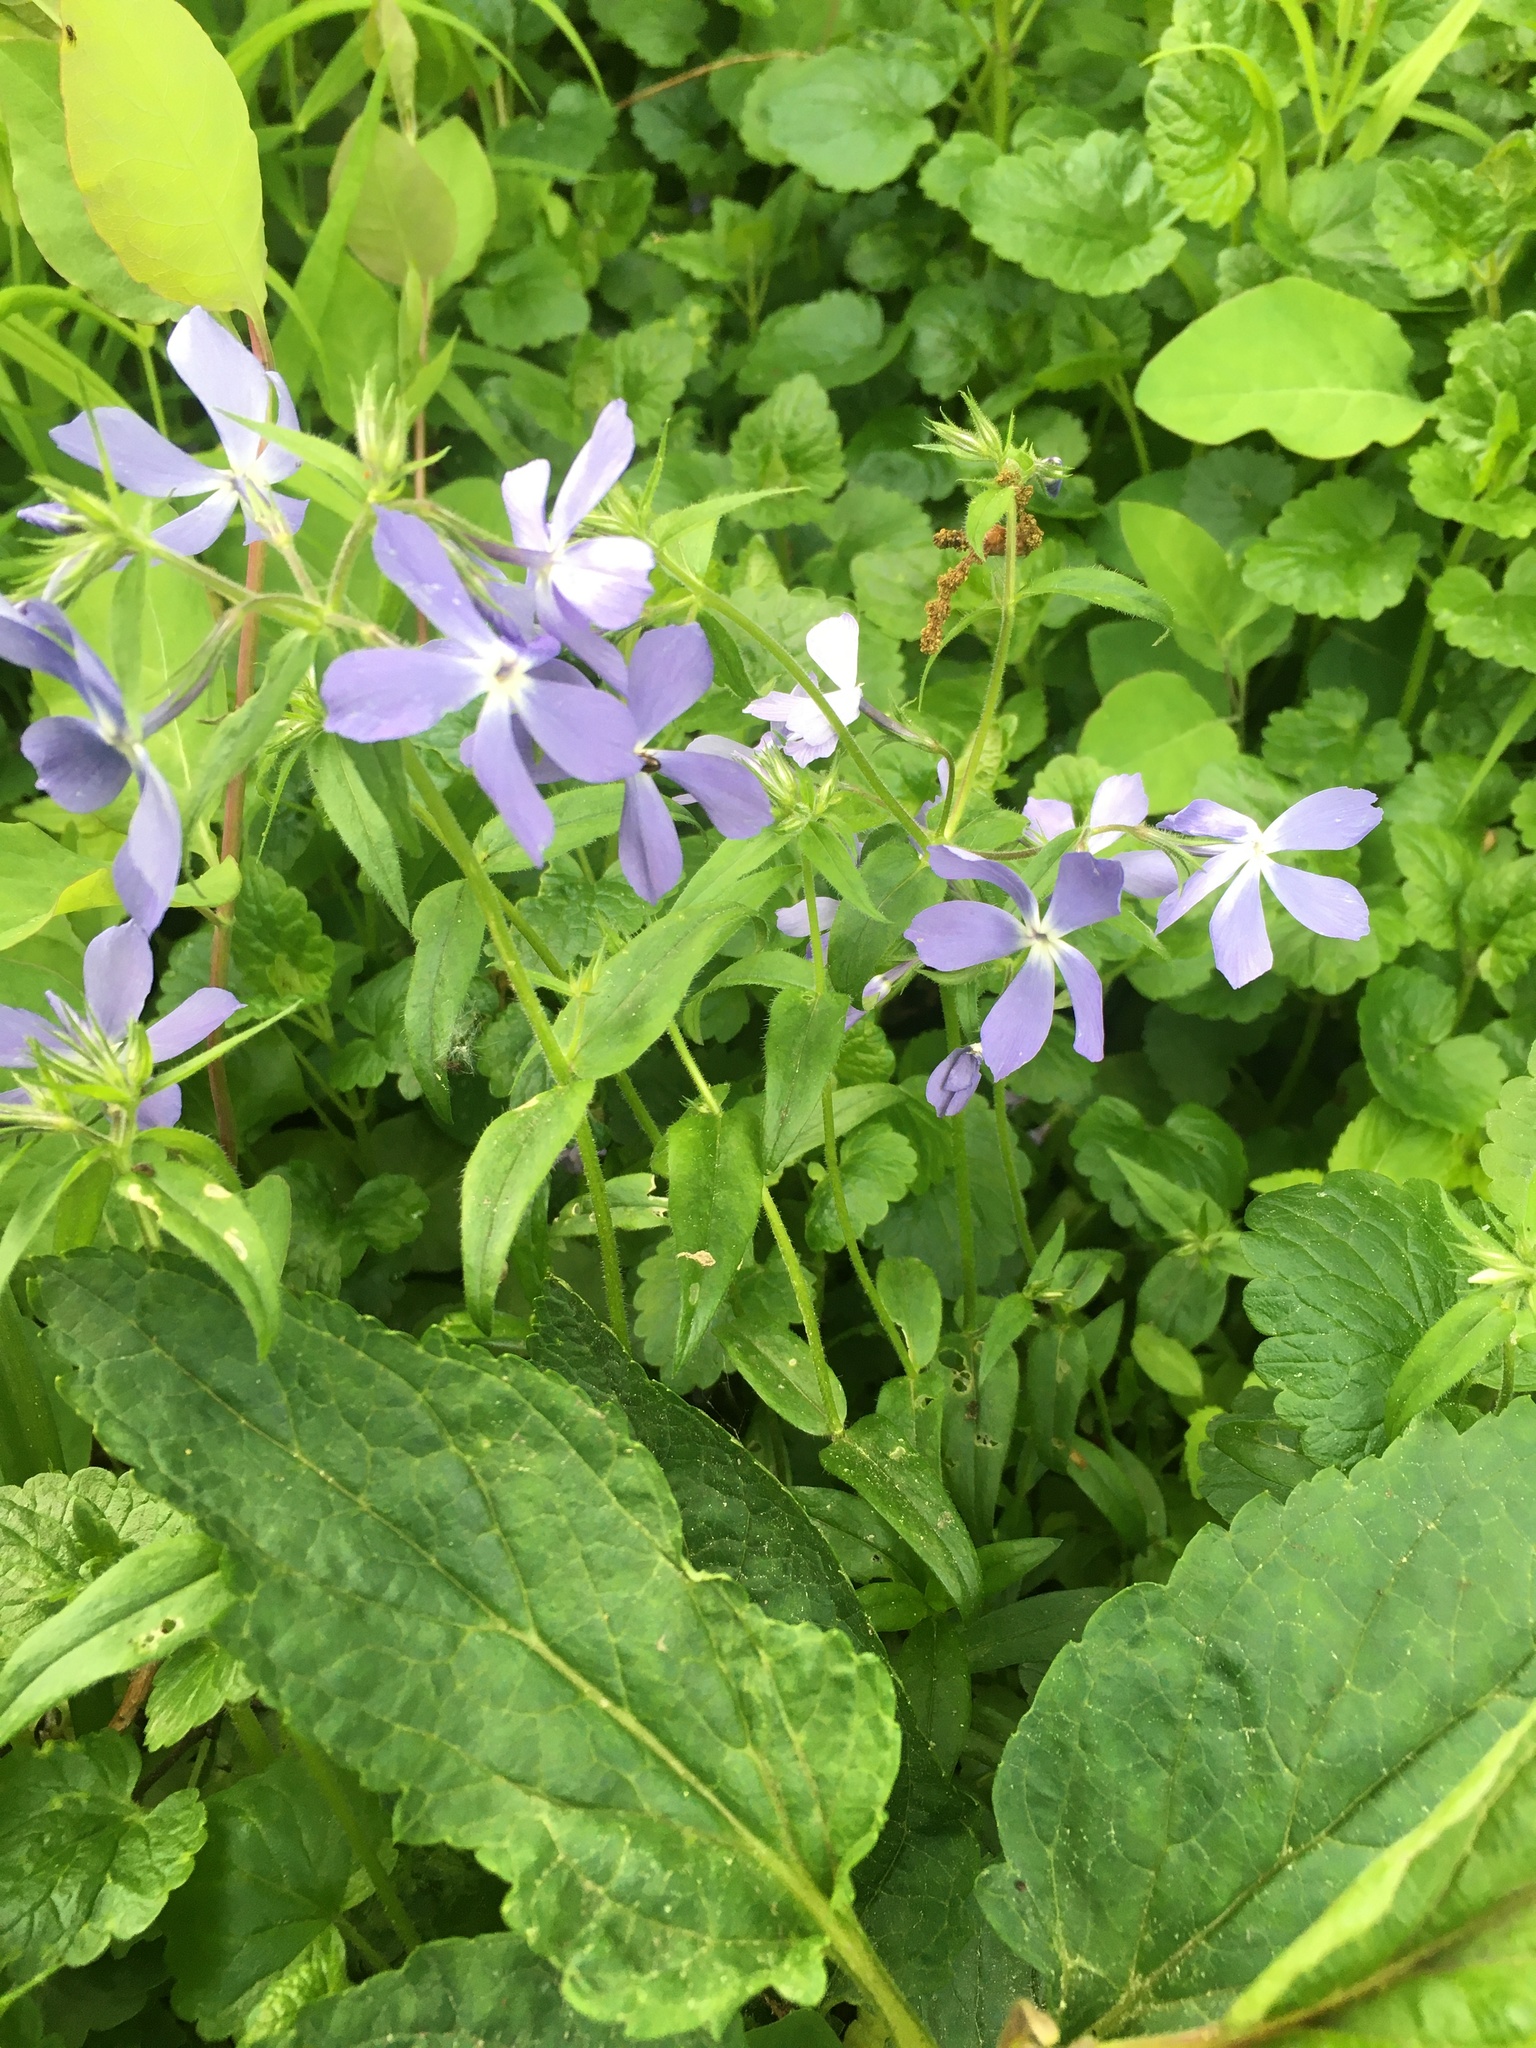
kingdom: Plantae
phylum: Tracheophyta
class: Magnoliopsida
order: Ericales
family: Polemoniaceae
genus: Phlox
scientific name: Phlox divaricata
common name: Blue phlox
